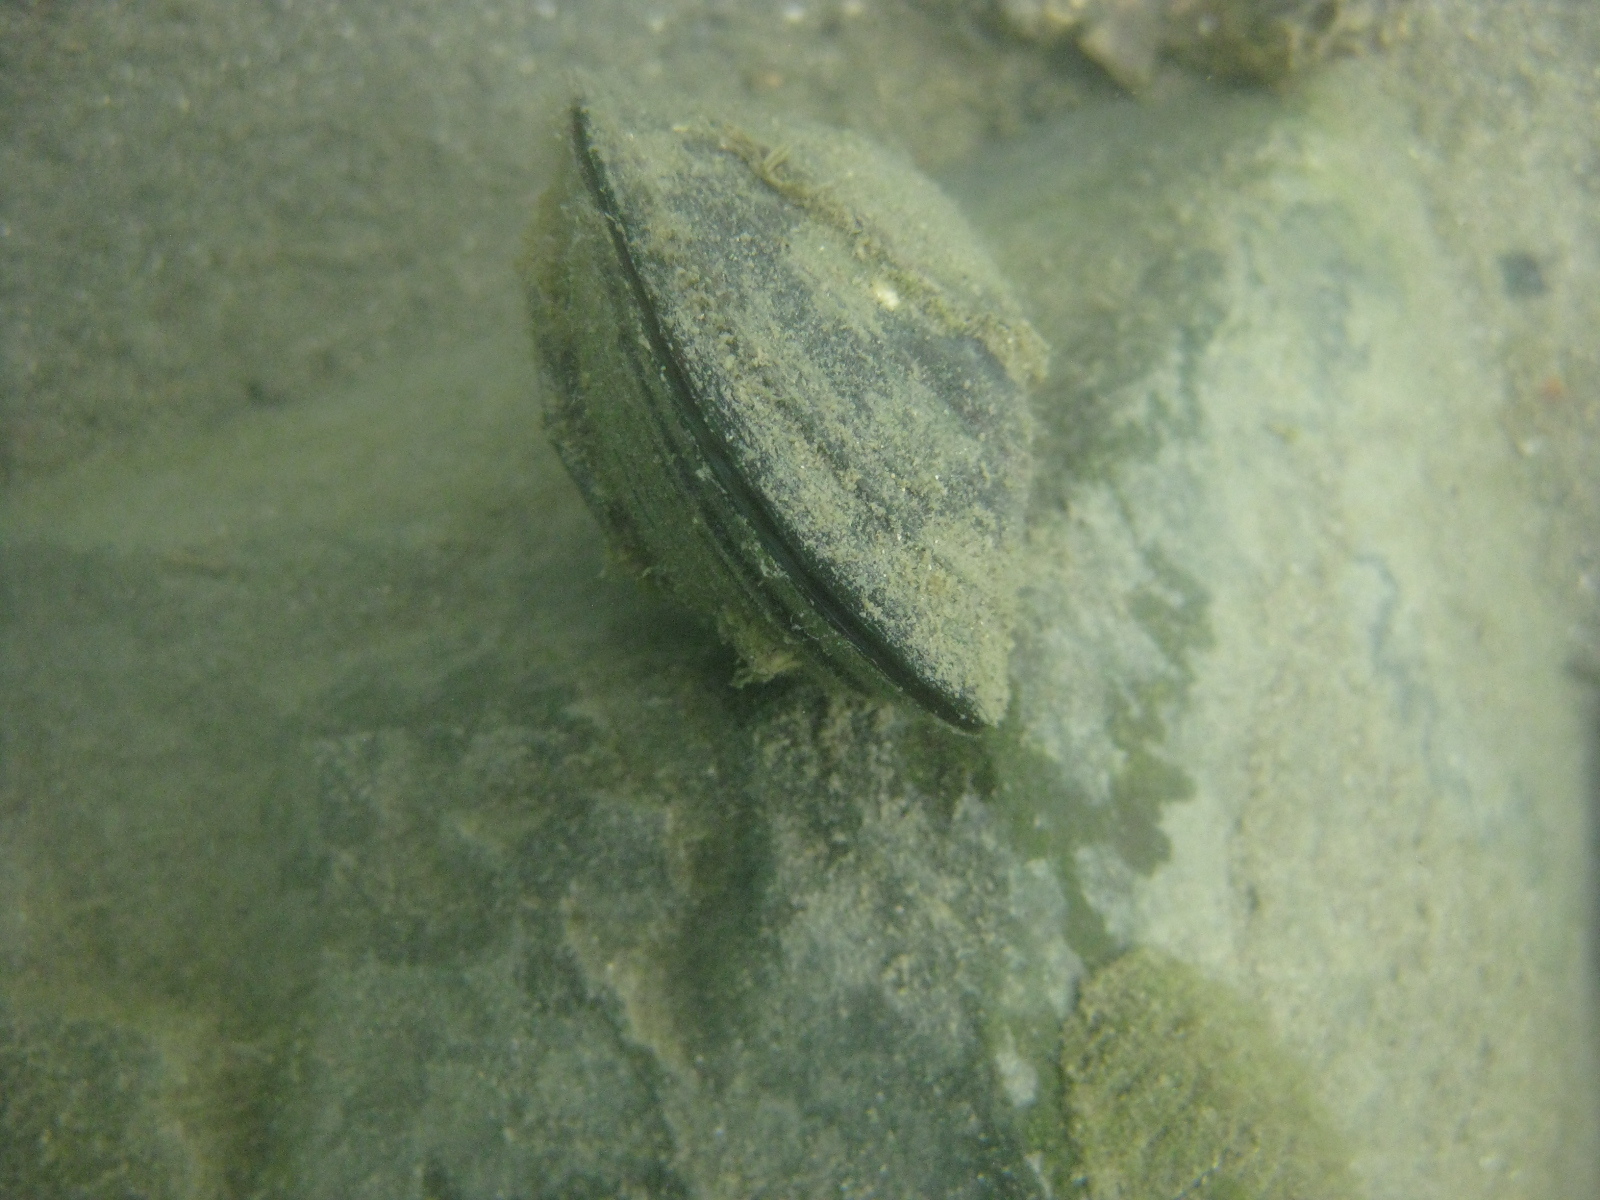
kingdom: Animalia
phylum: Mollusca
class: Bivalvia
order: Mytilida
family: Mytilidae
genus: Perna
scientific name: Perna canaliculus
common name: New zealand greenshelltm
